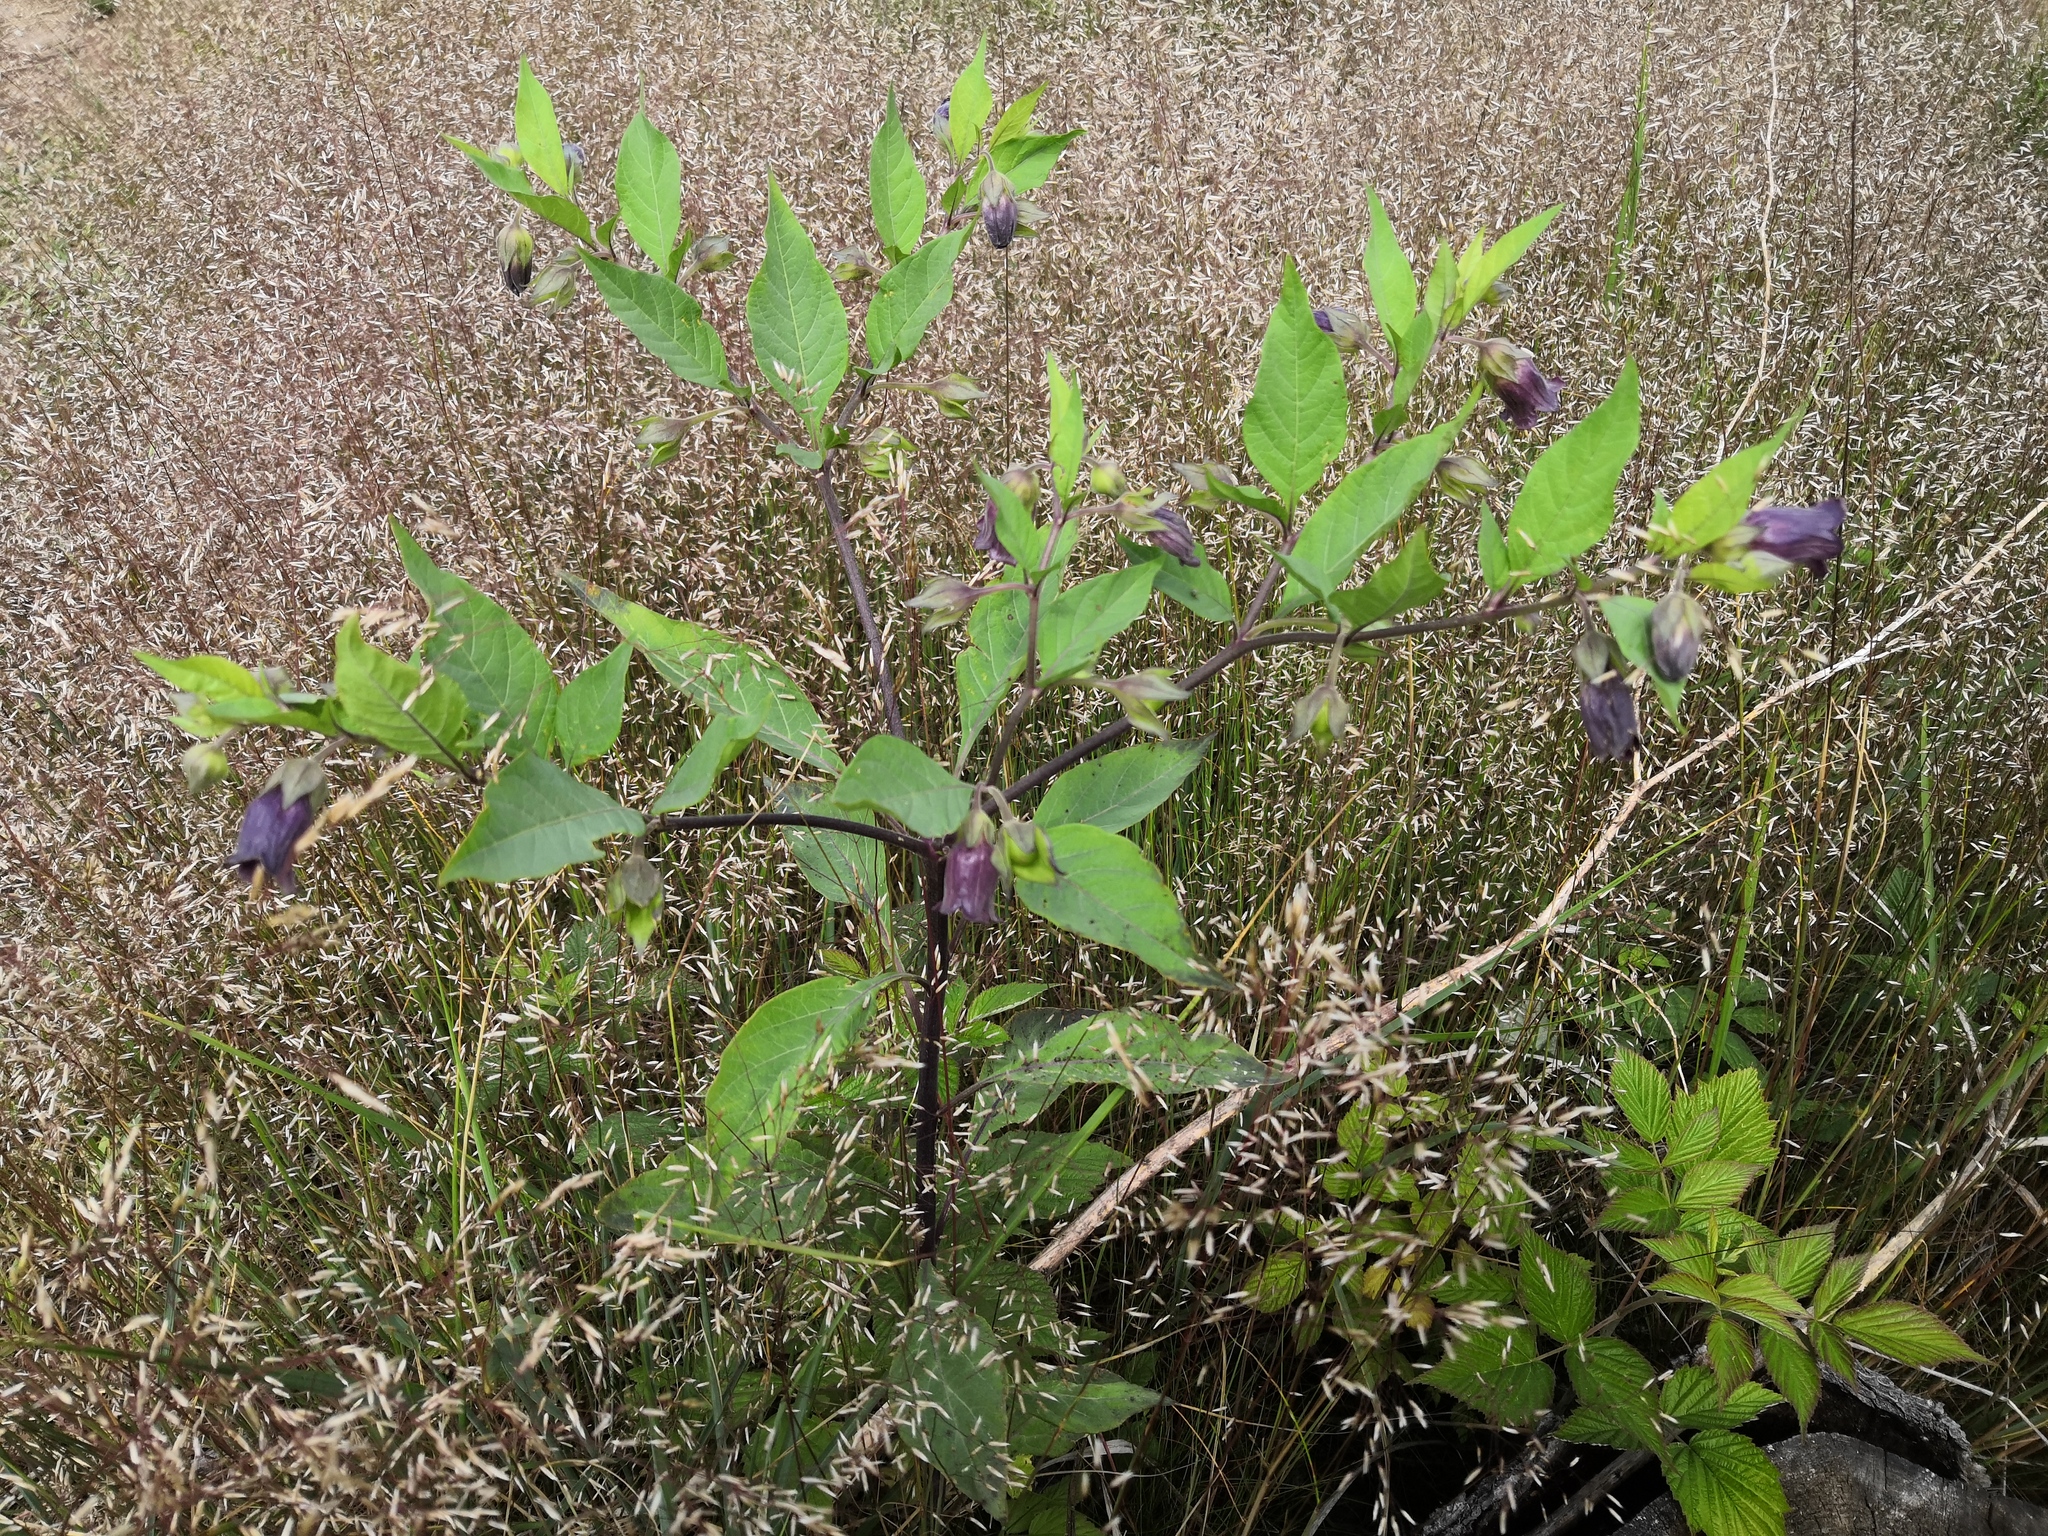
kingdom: Plantae
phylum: Tracheophyta
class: Magnoliopsida
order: Solanales
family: Solanaceae
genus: Atropa
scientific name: Atropa belladonna
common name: Deadly nightshade
